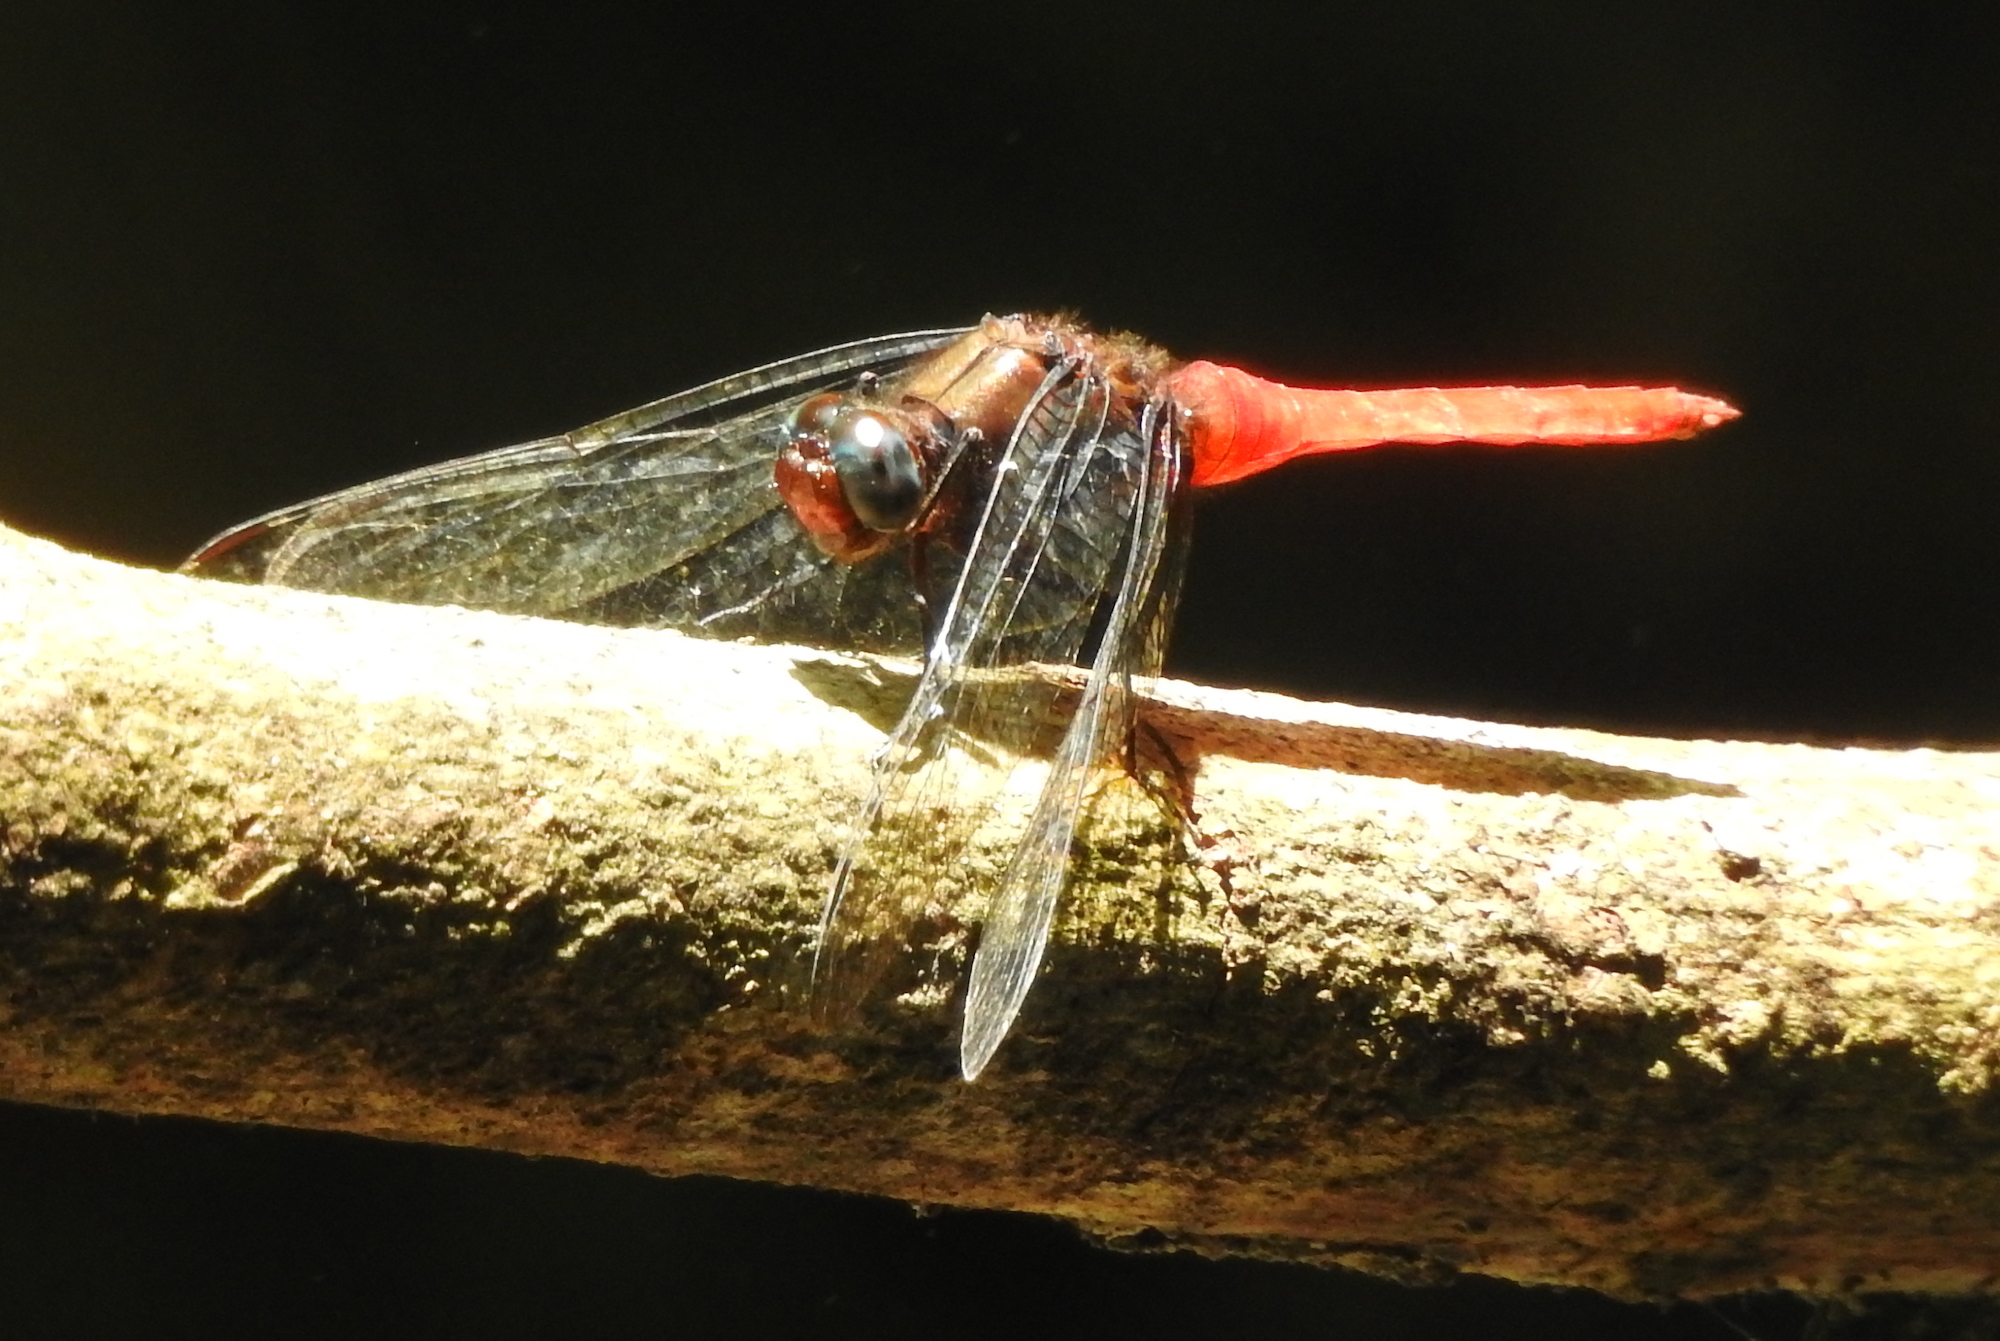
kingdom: Animalia
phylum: Arthropoda
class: Insecta
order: Odonata
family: Libellulidae
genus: Orthetrum
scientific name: Orthetrum testaceum
